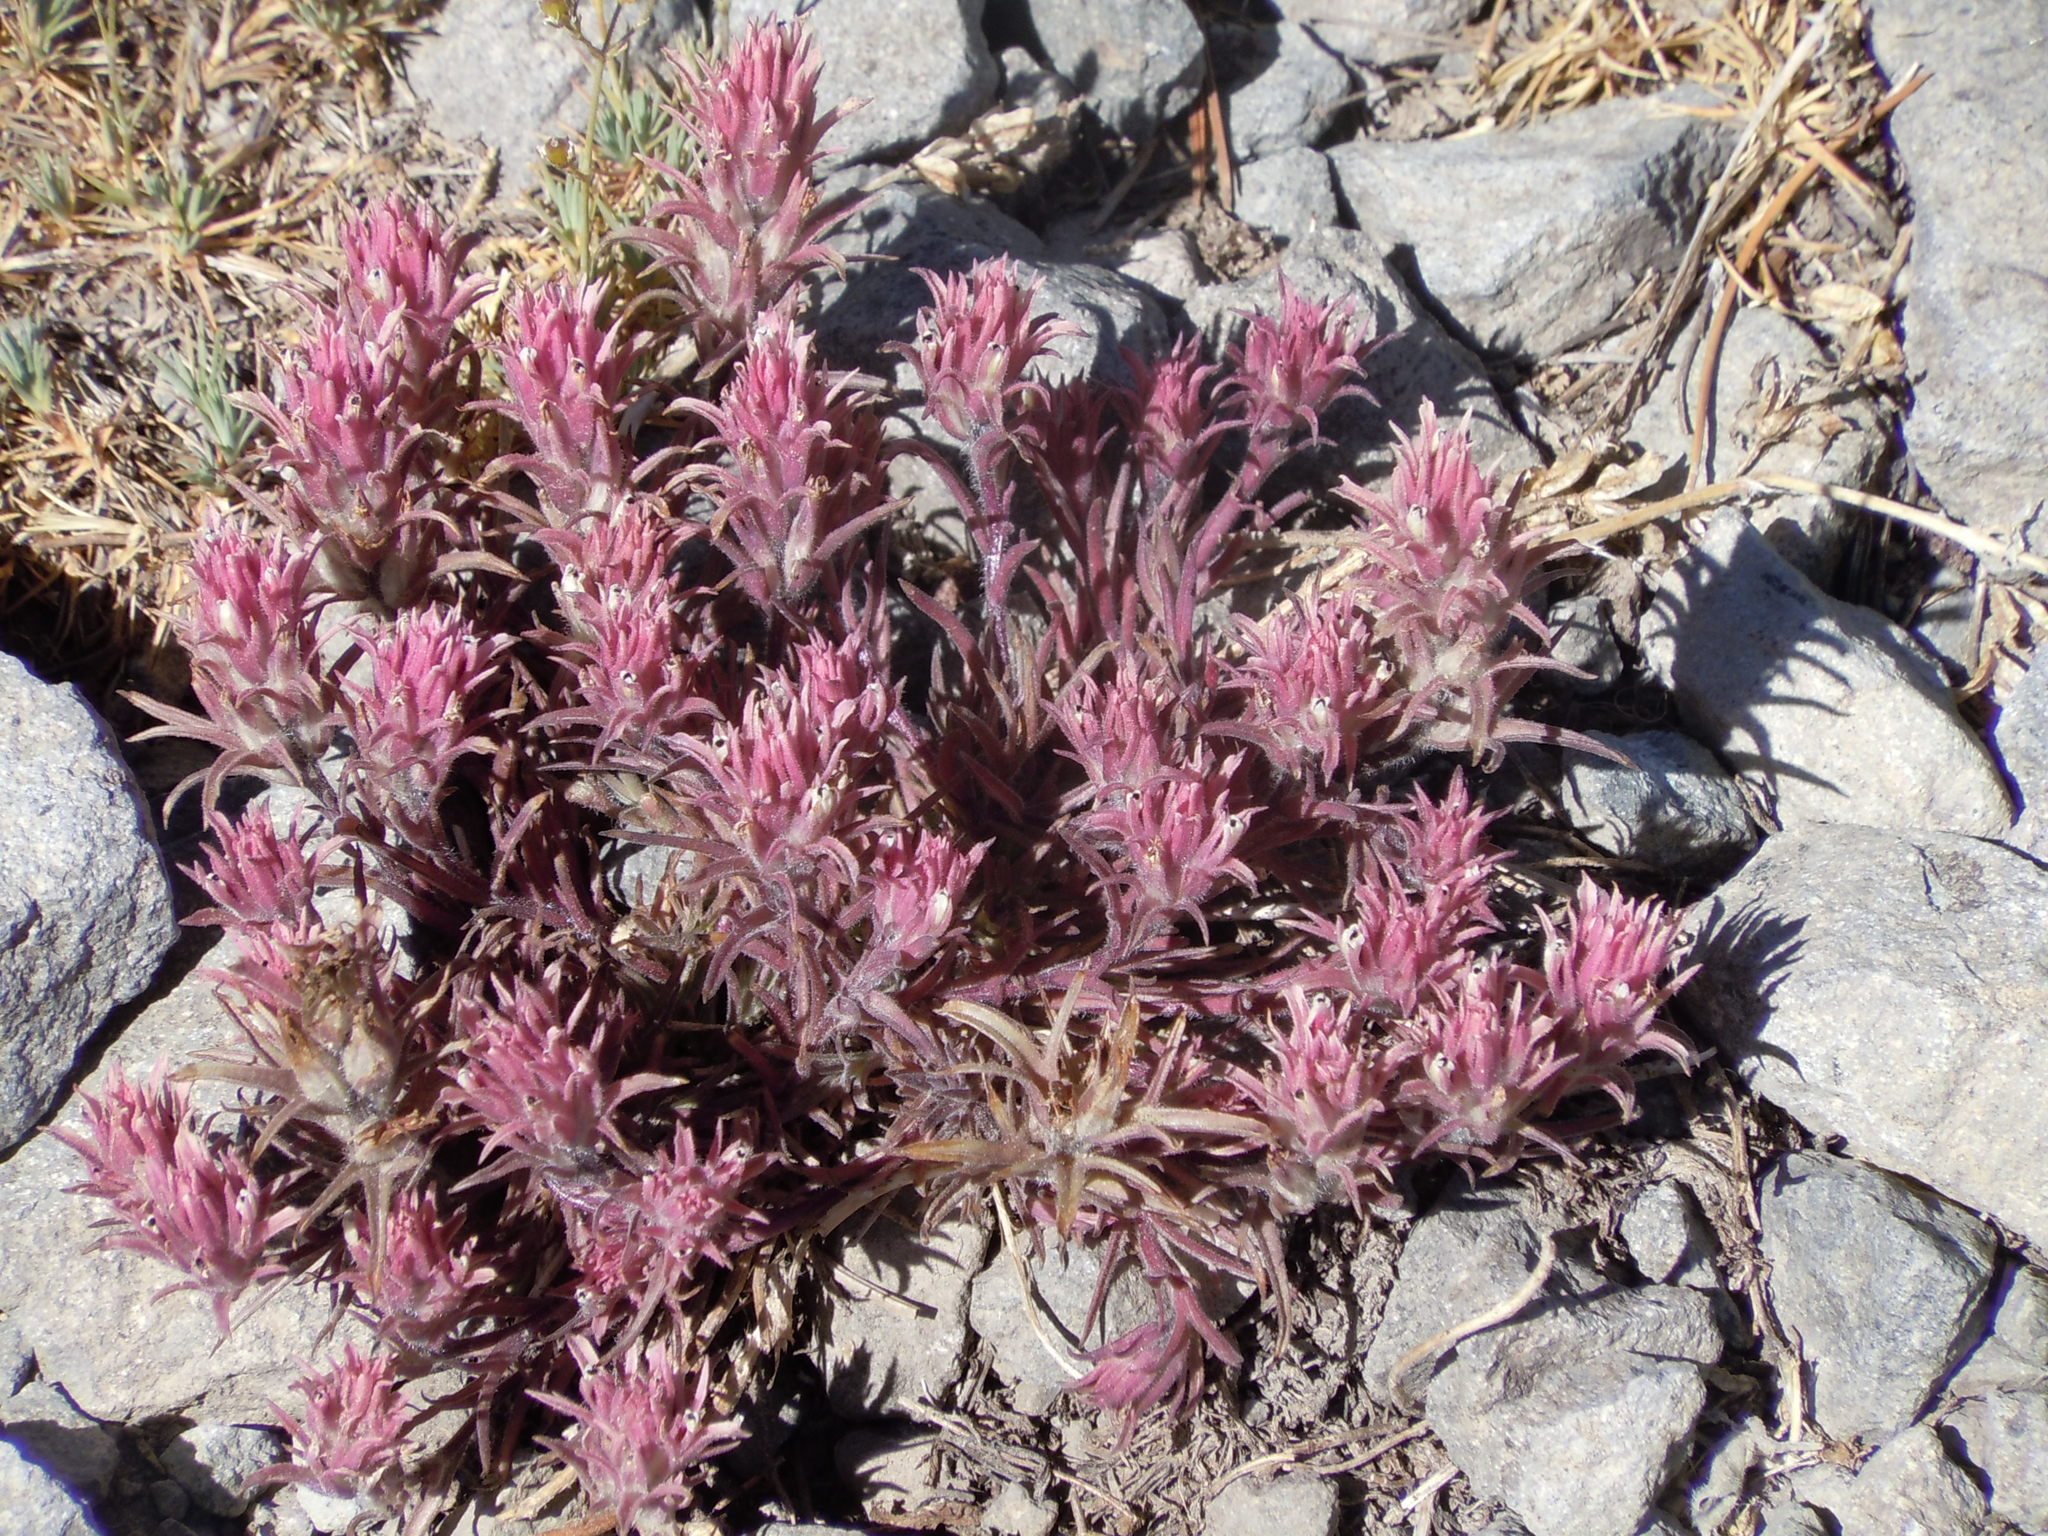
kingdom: Plantae
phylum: Tracheophyta
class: Magnoliopsida
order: Lamiales
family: Orobanchaceae
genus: Castilleja
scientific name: Castilleja nana
